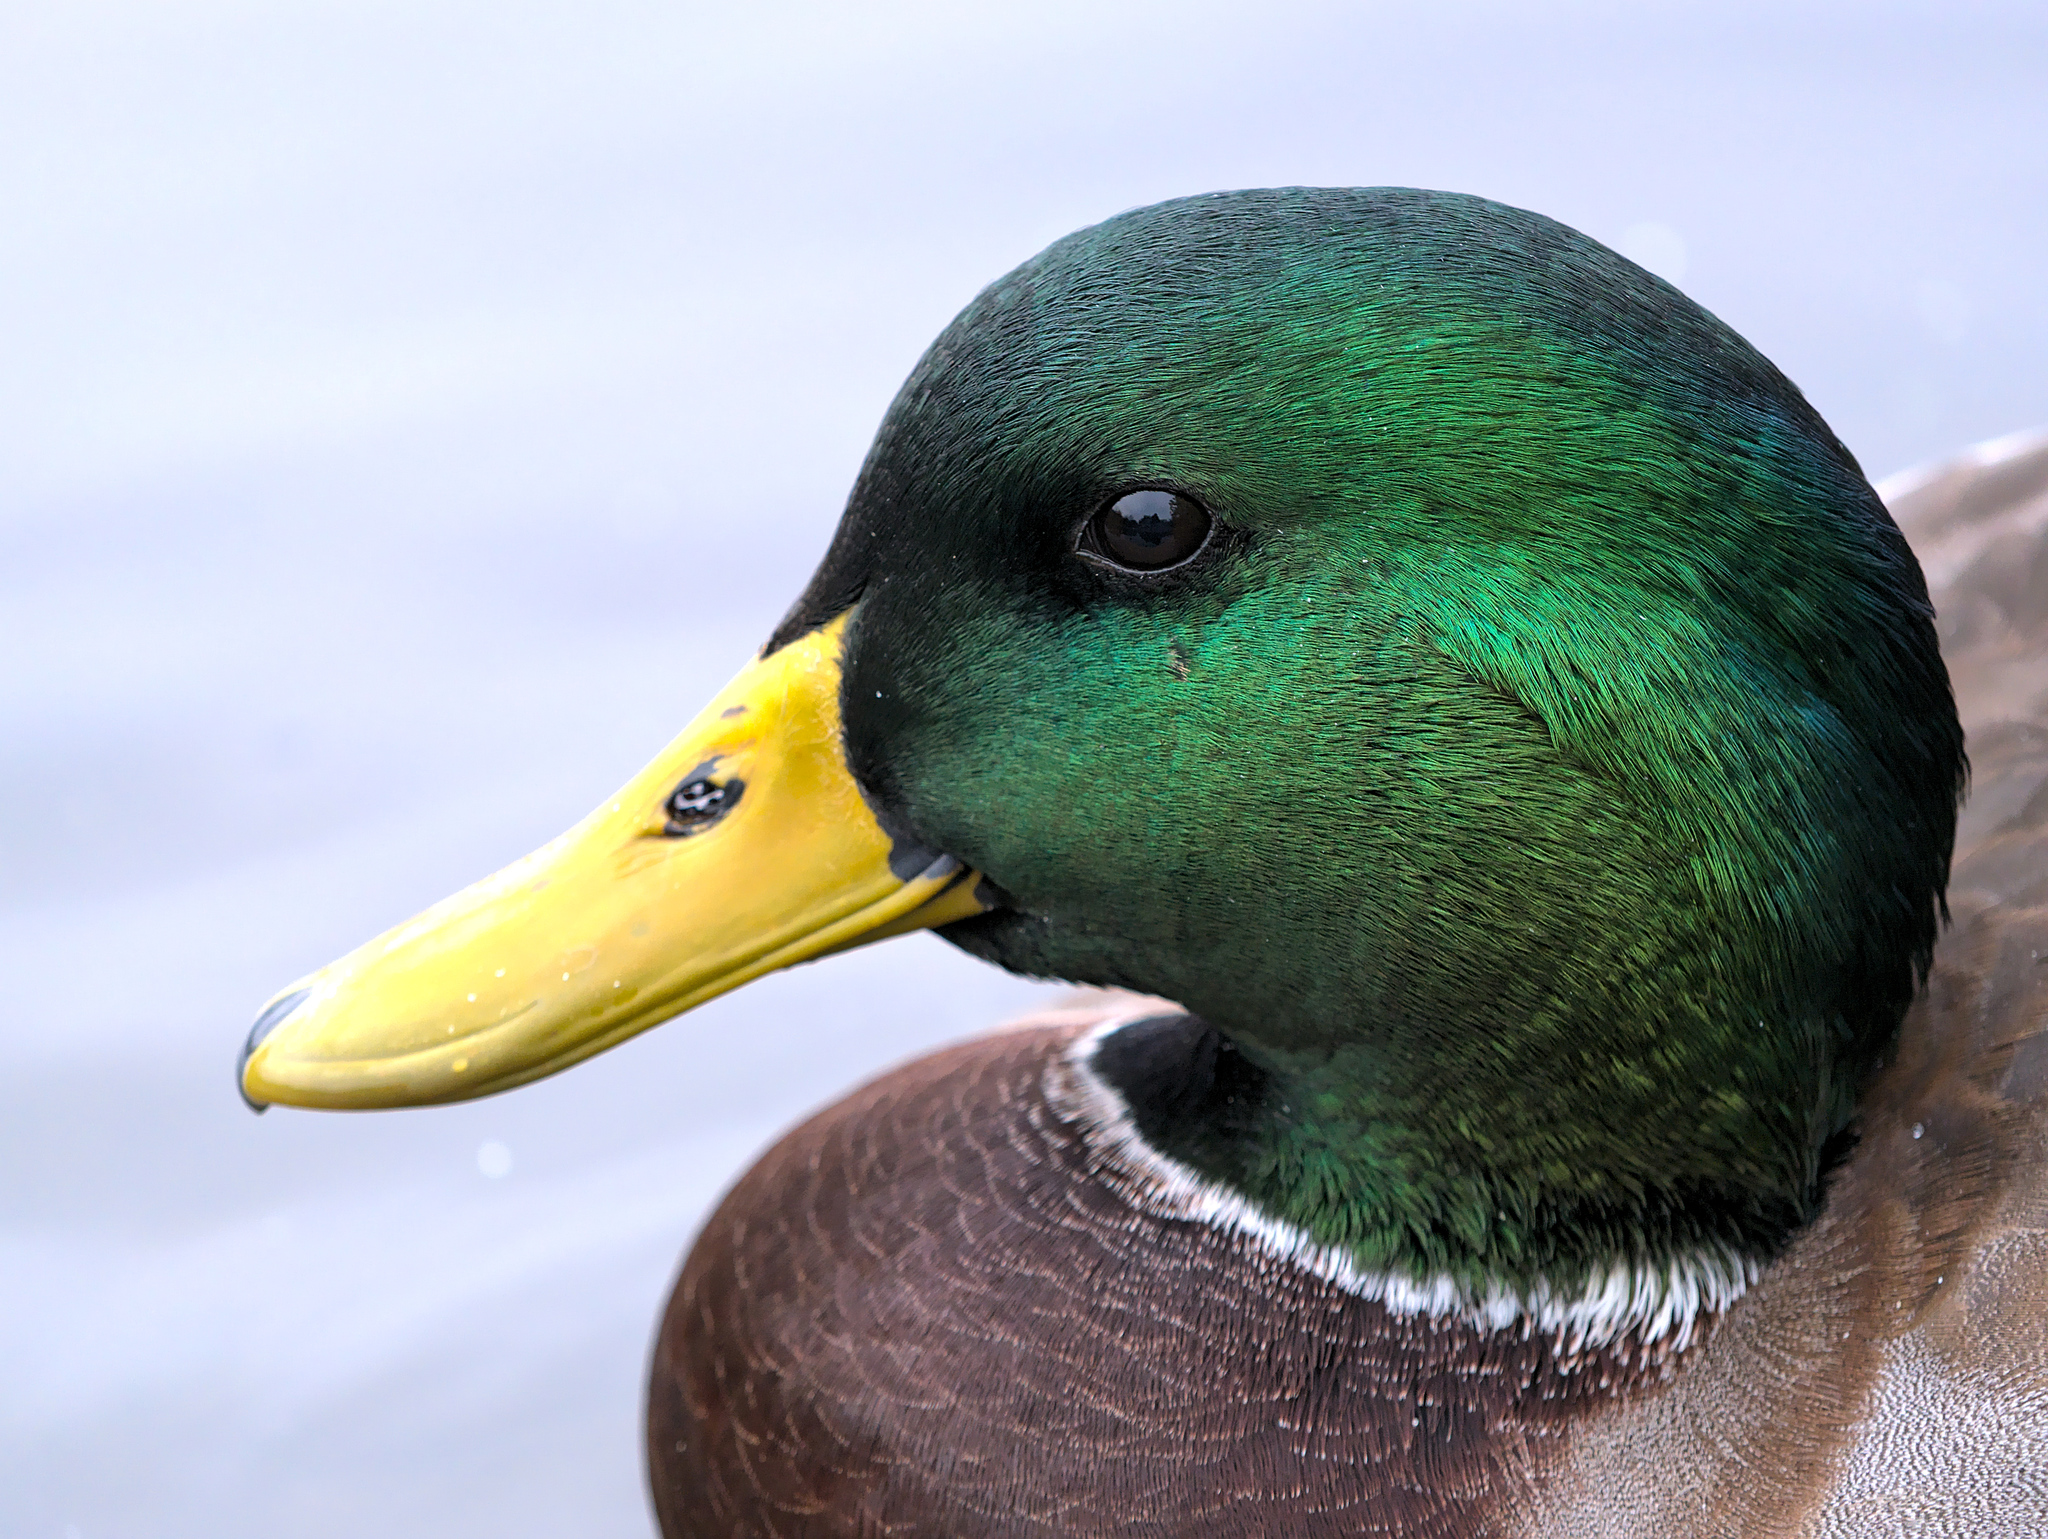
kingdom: Animalia
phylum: Chordata
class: Aves
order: Anseriformes
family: Anatidae
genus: Anas
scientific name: Anas platyrhynchos
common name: Mallard
